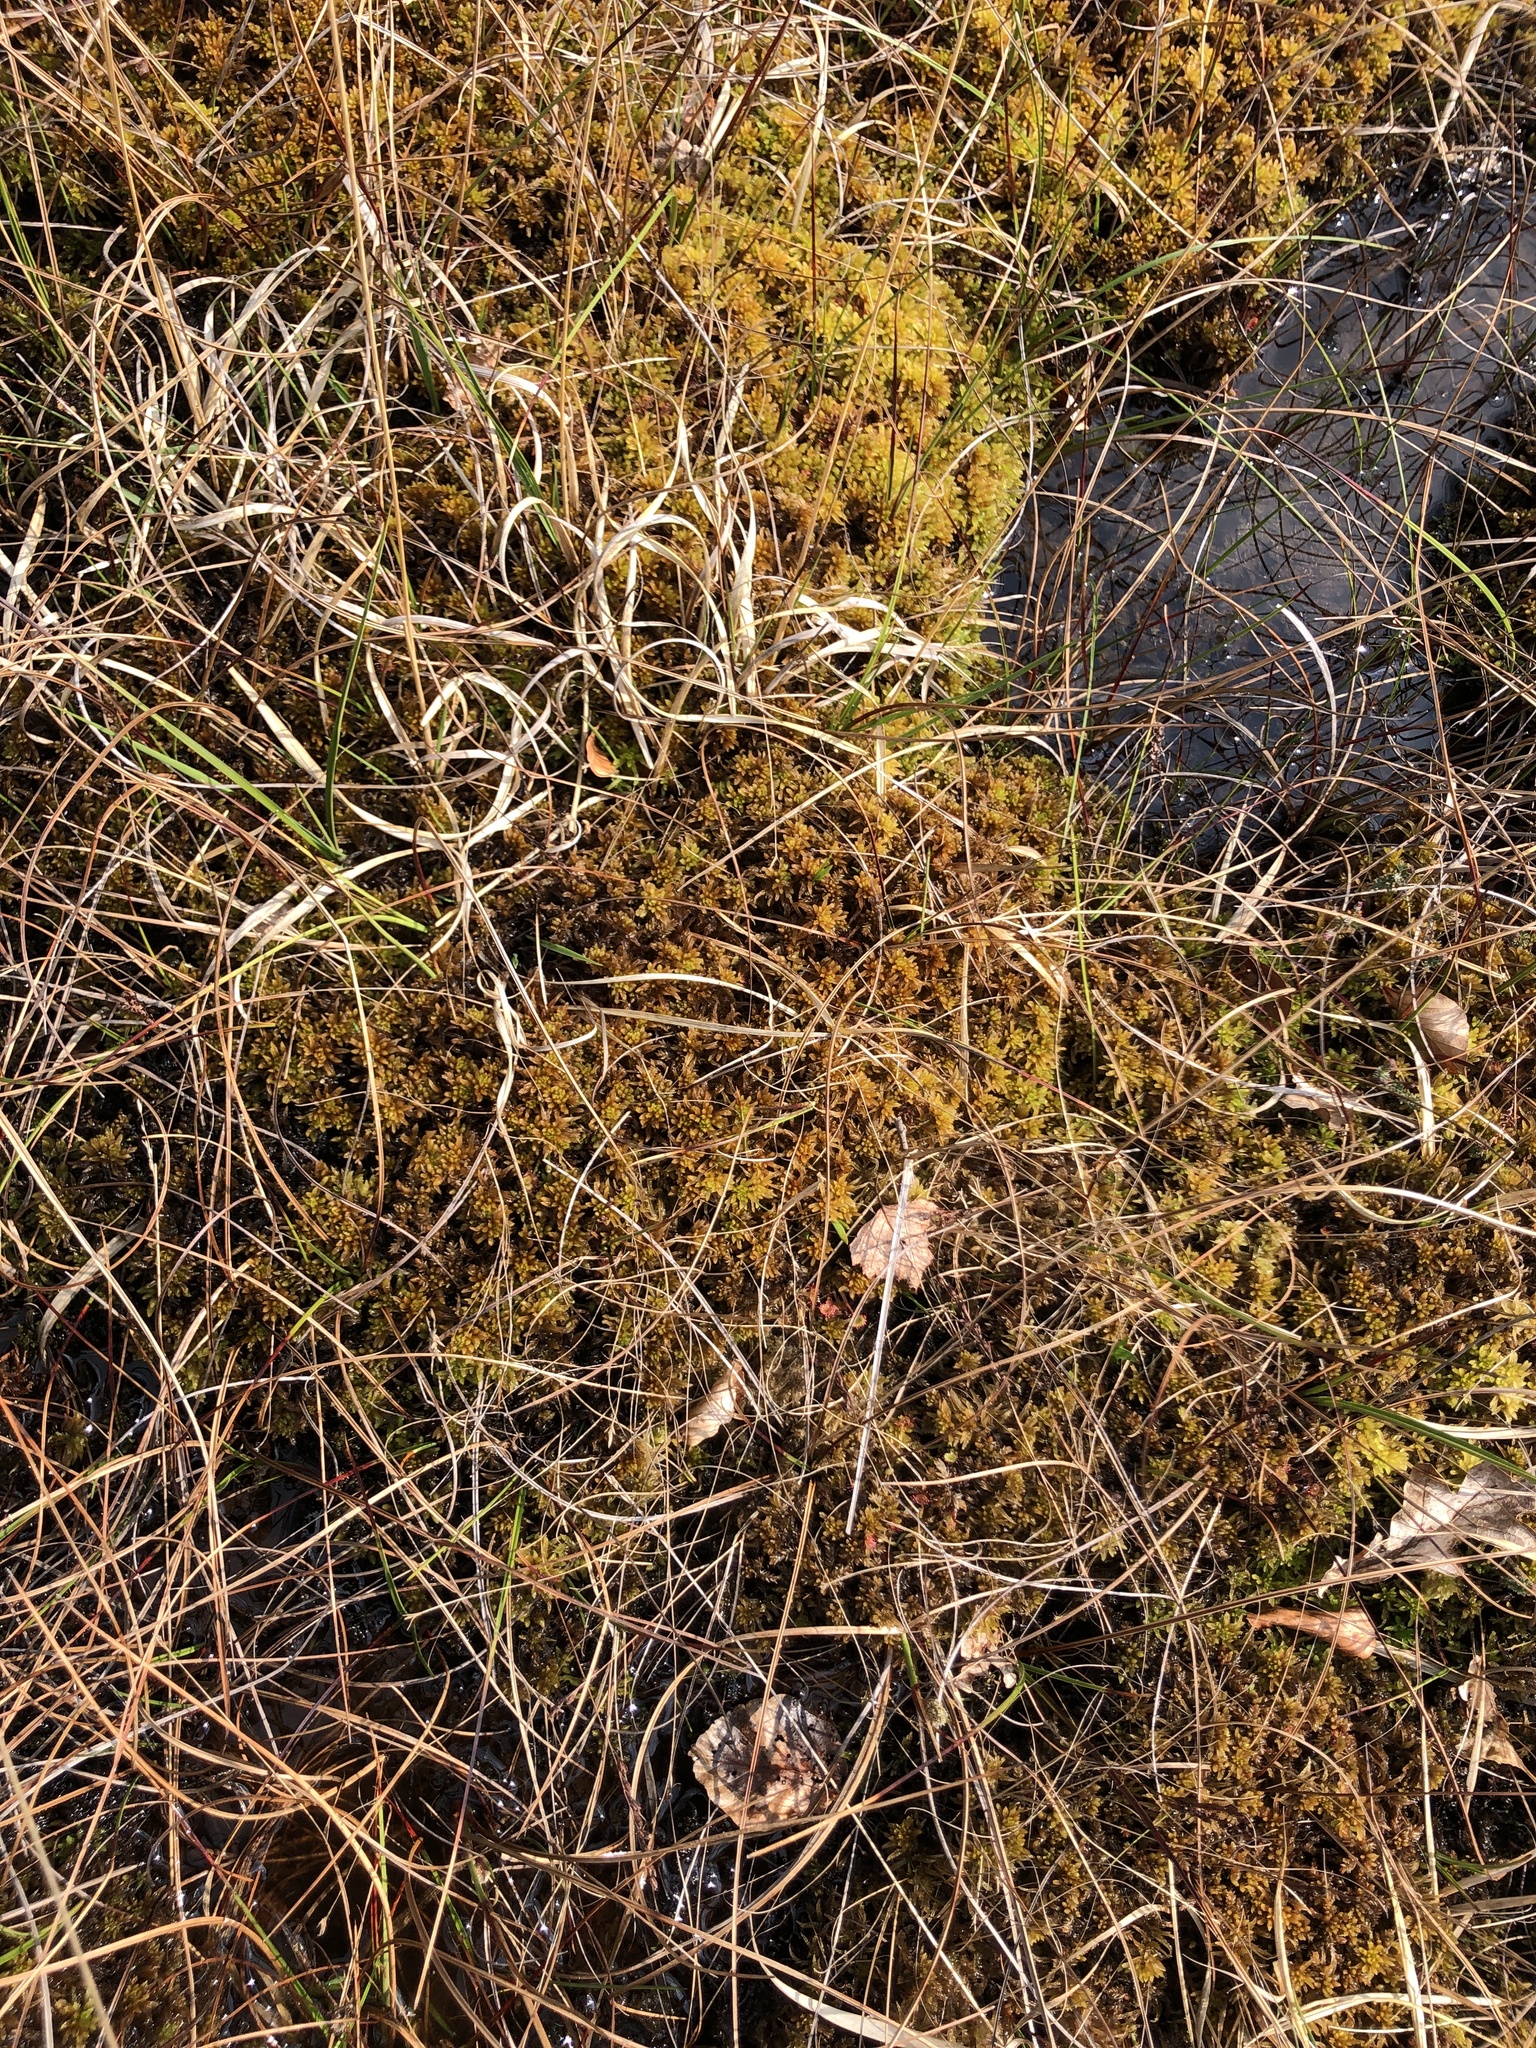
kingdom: Plantae
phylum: Bryophyta
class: Sphagnopsida
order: Sphagnales
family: Sphagnaceae
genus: Sphagnum
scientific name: Sphagnum pulchrum
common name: Beautiful peat moss
